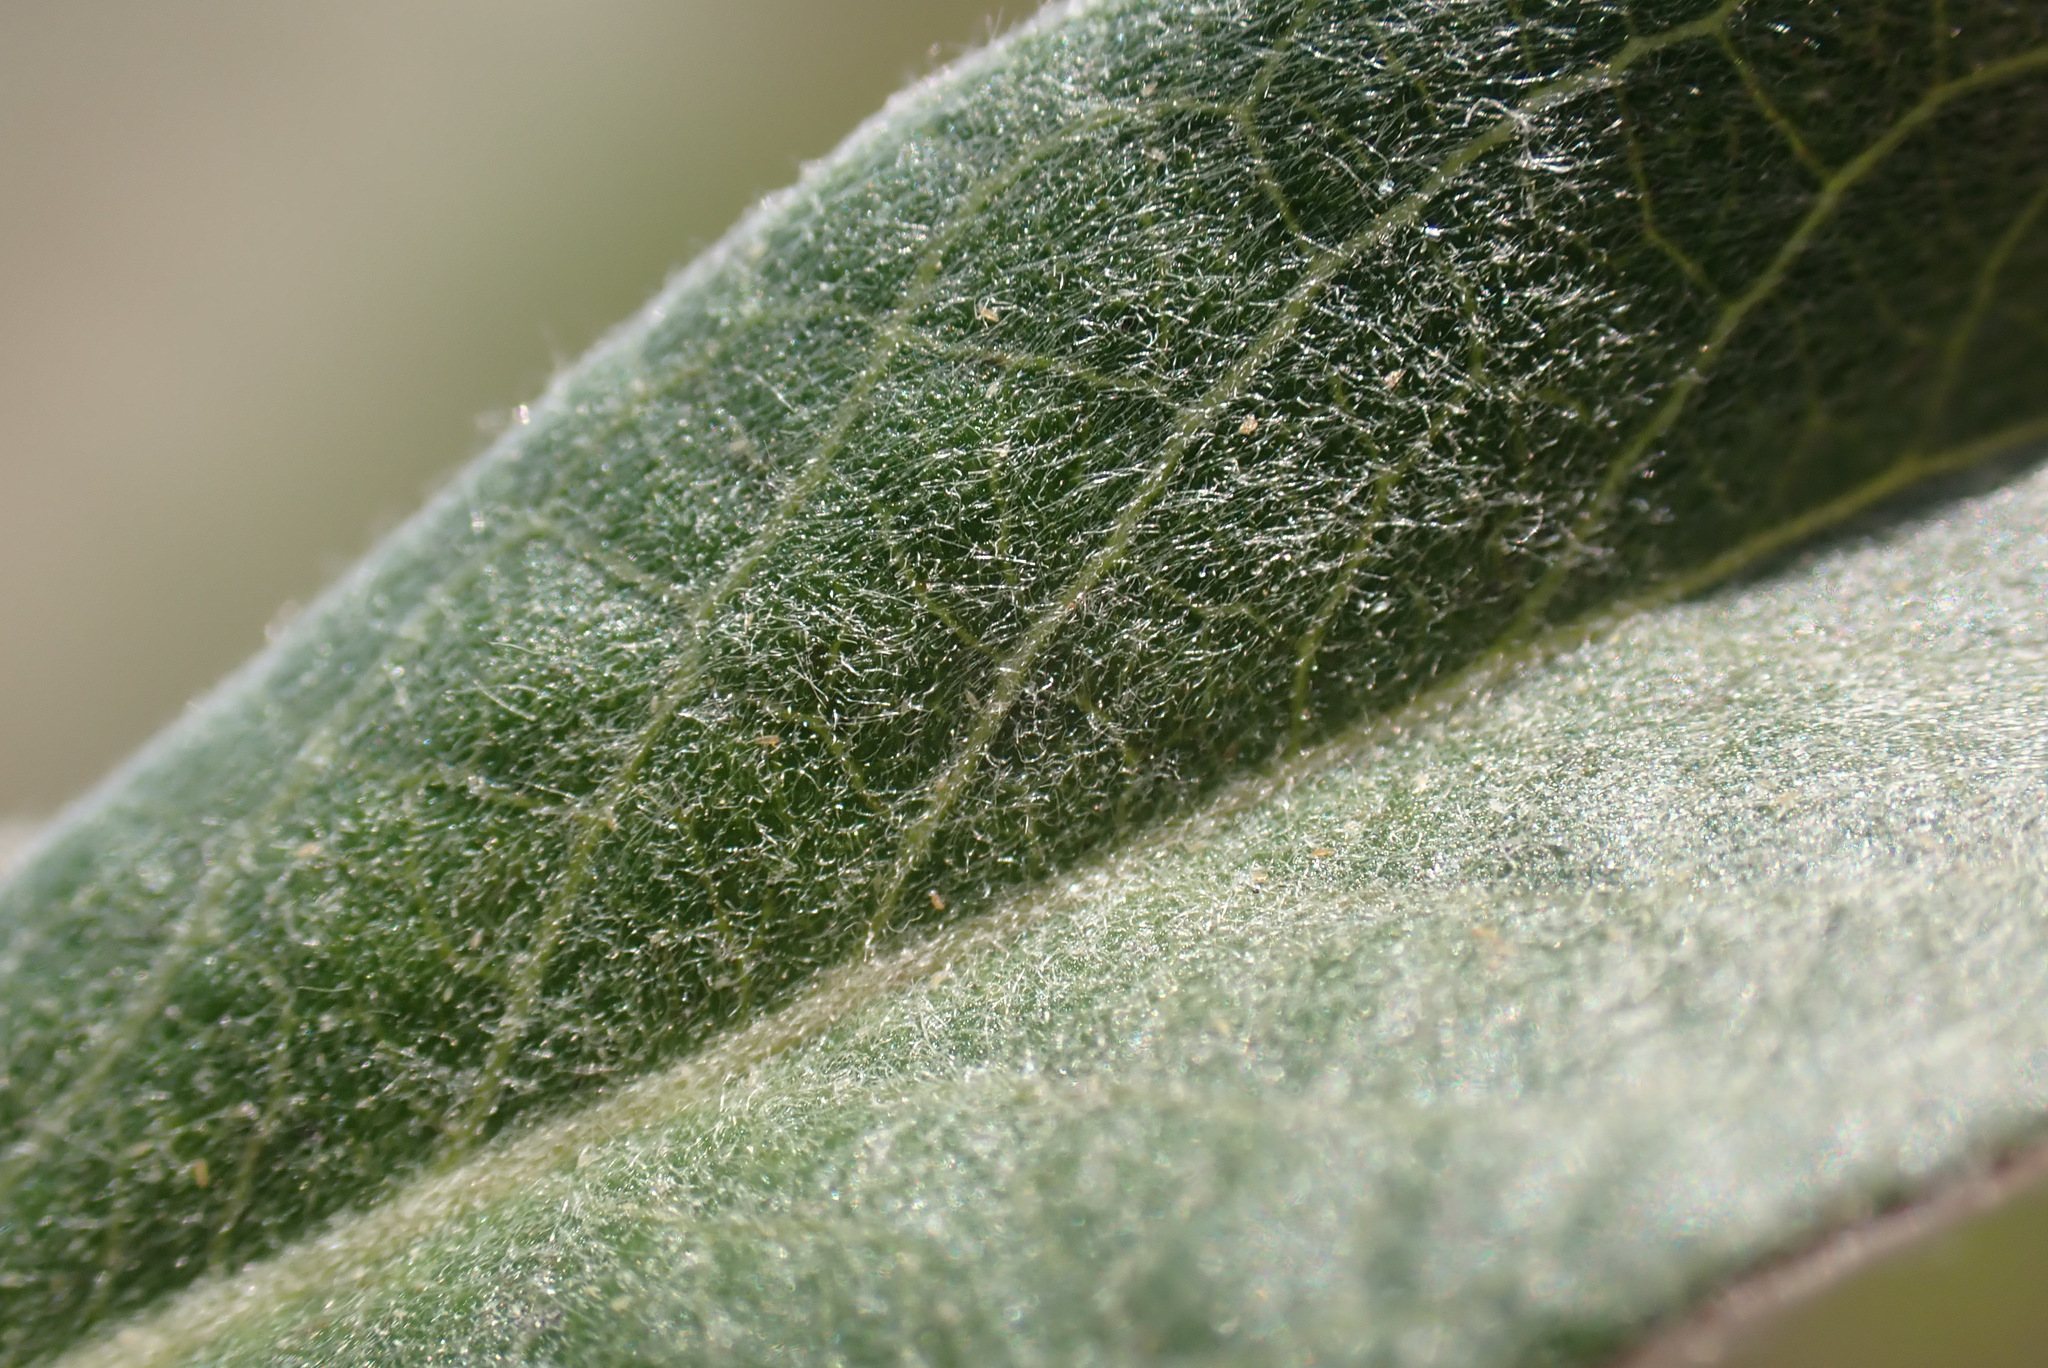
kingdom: Plantae
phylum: Tracheophyta
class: Magnoliopsida
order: Malpighiales
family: Salicaceae
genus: Salix
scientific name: Salix repens
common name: Creeping willow
